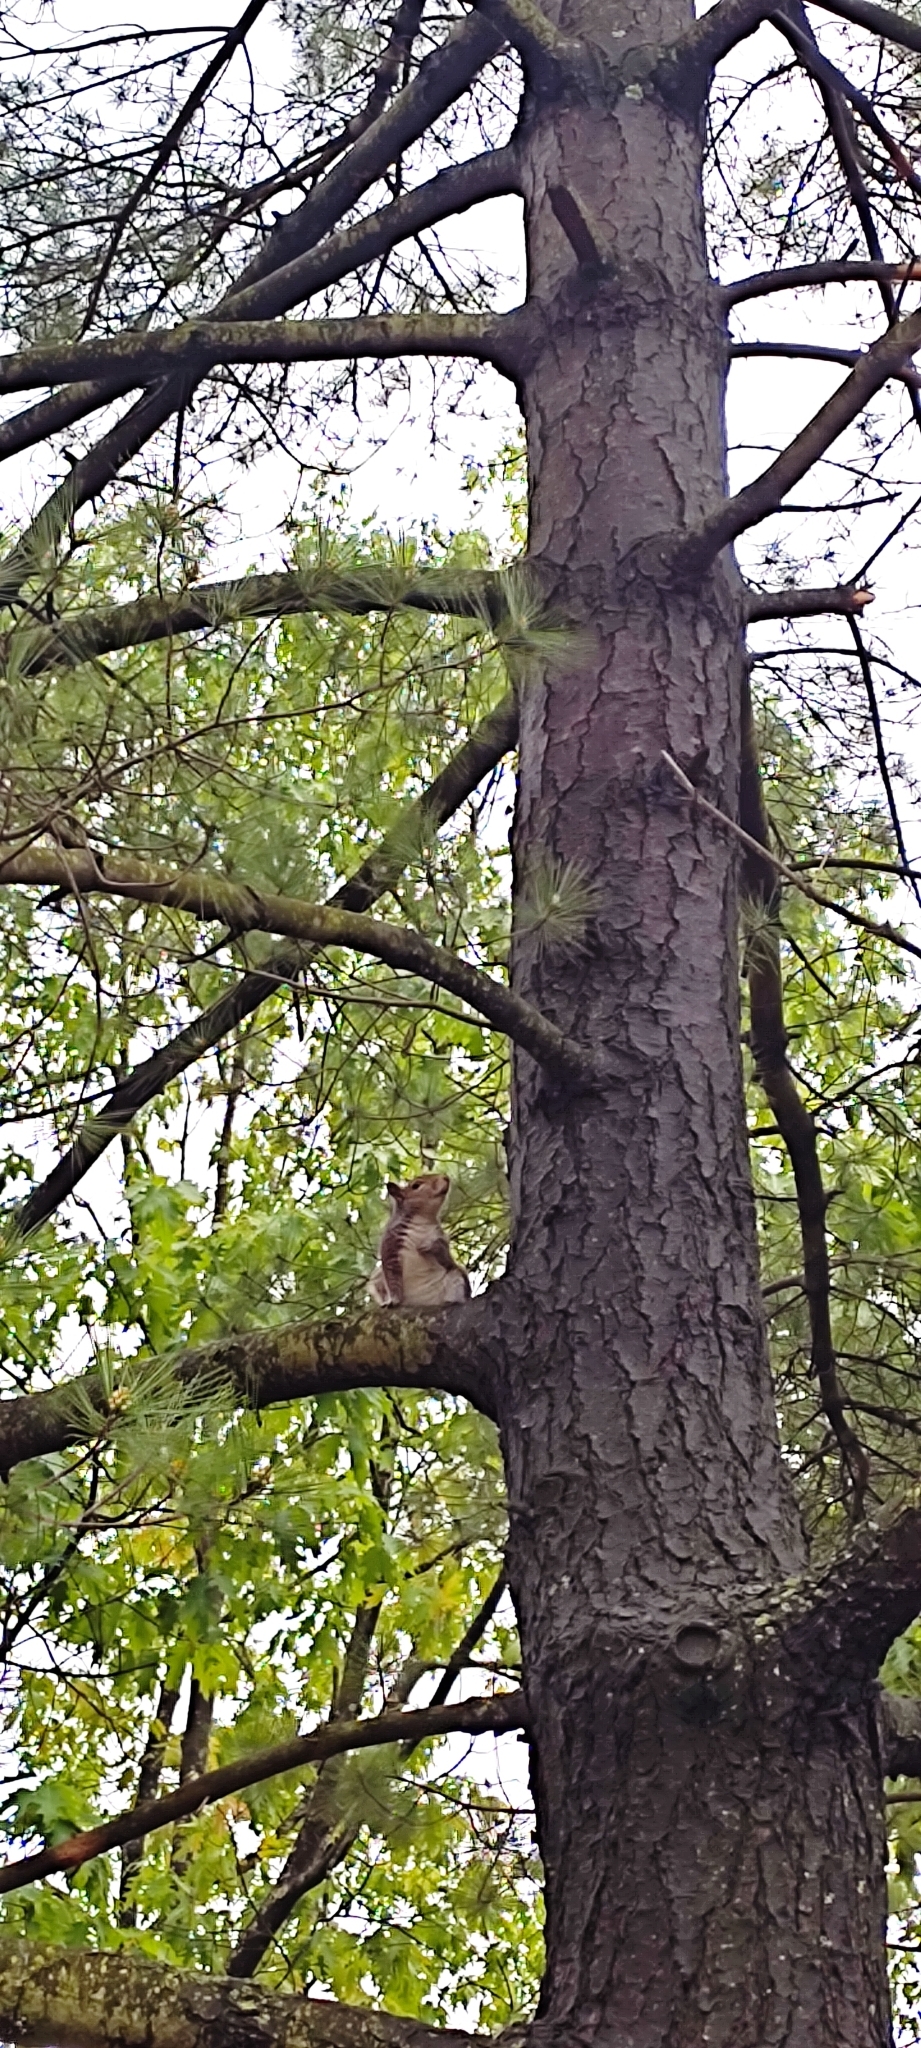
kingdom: Animalia
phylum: Chordata
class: Mammalia
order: Rodentia
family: Sciuridae
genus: Sciurus
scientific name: Sciurus carolinensis
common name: Eastern gray squirrel
